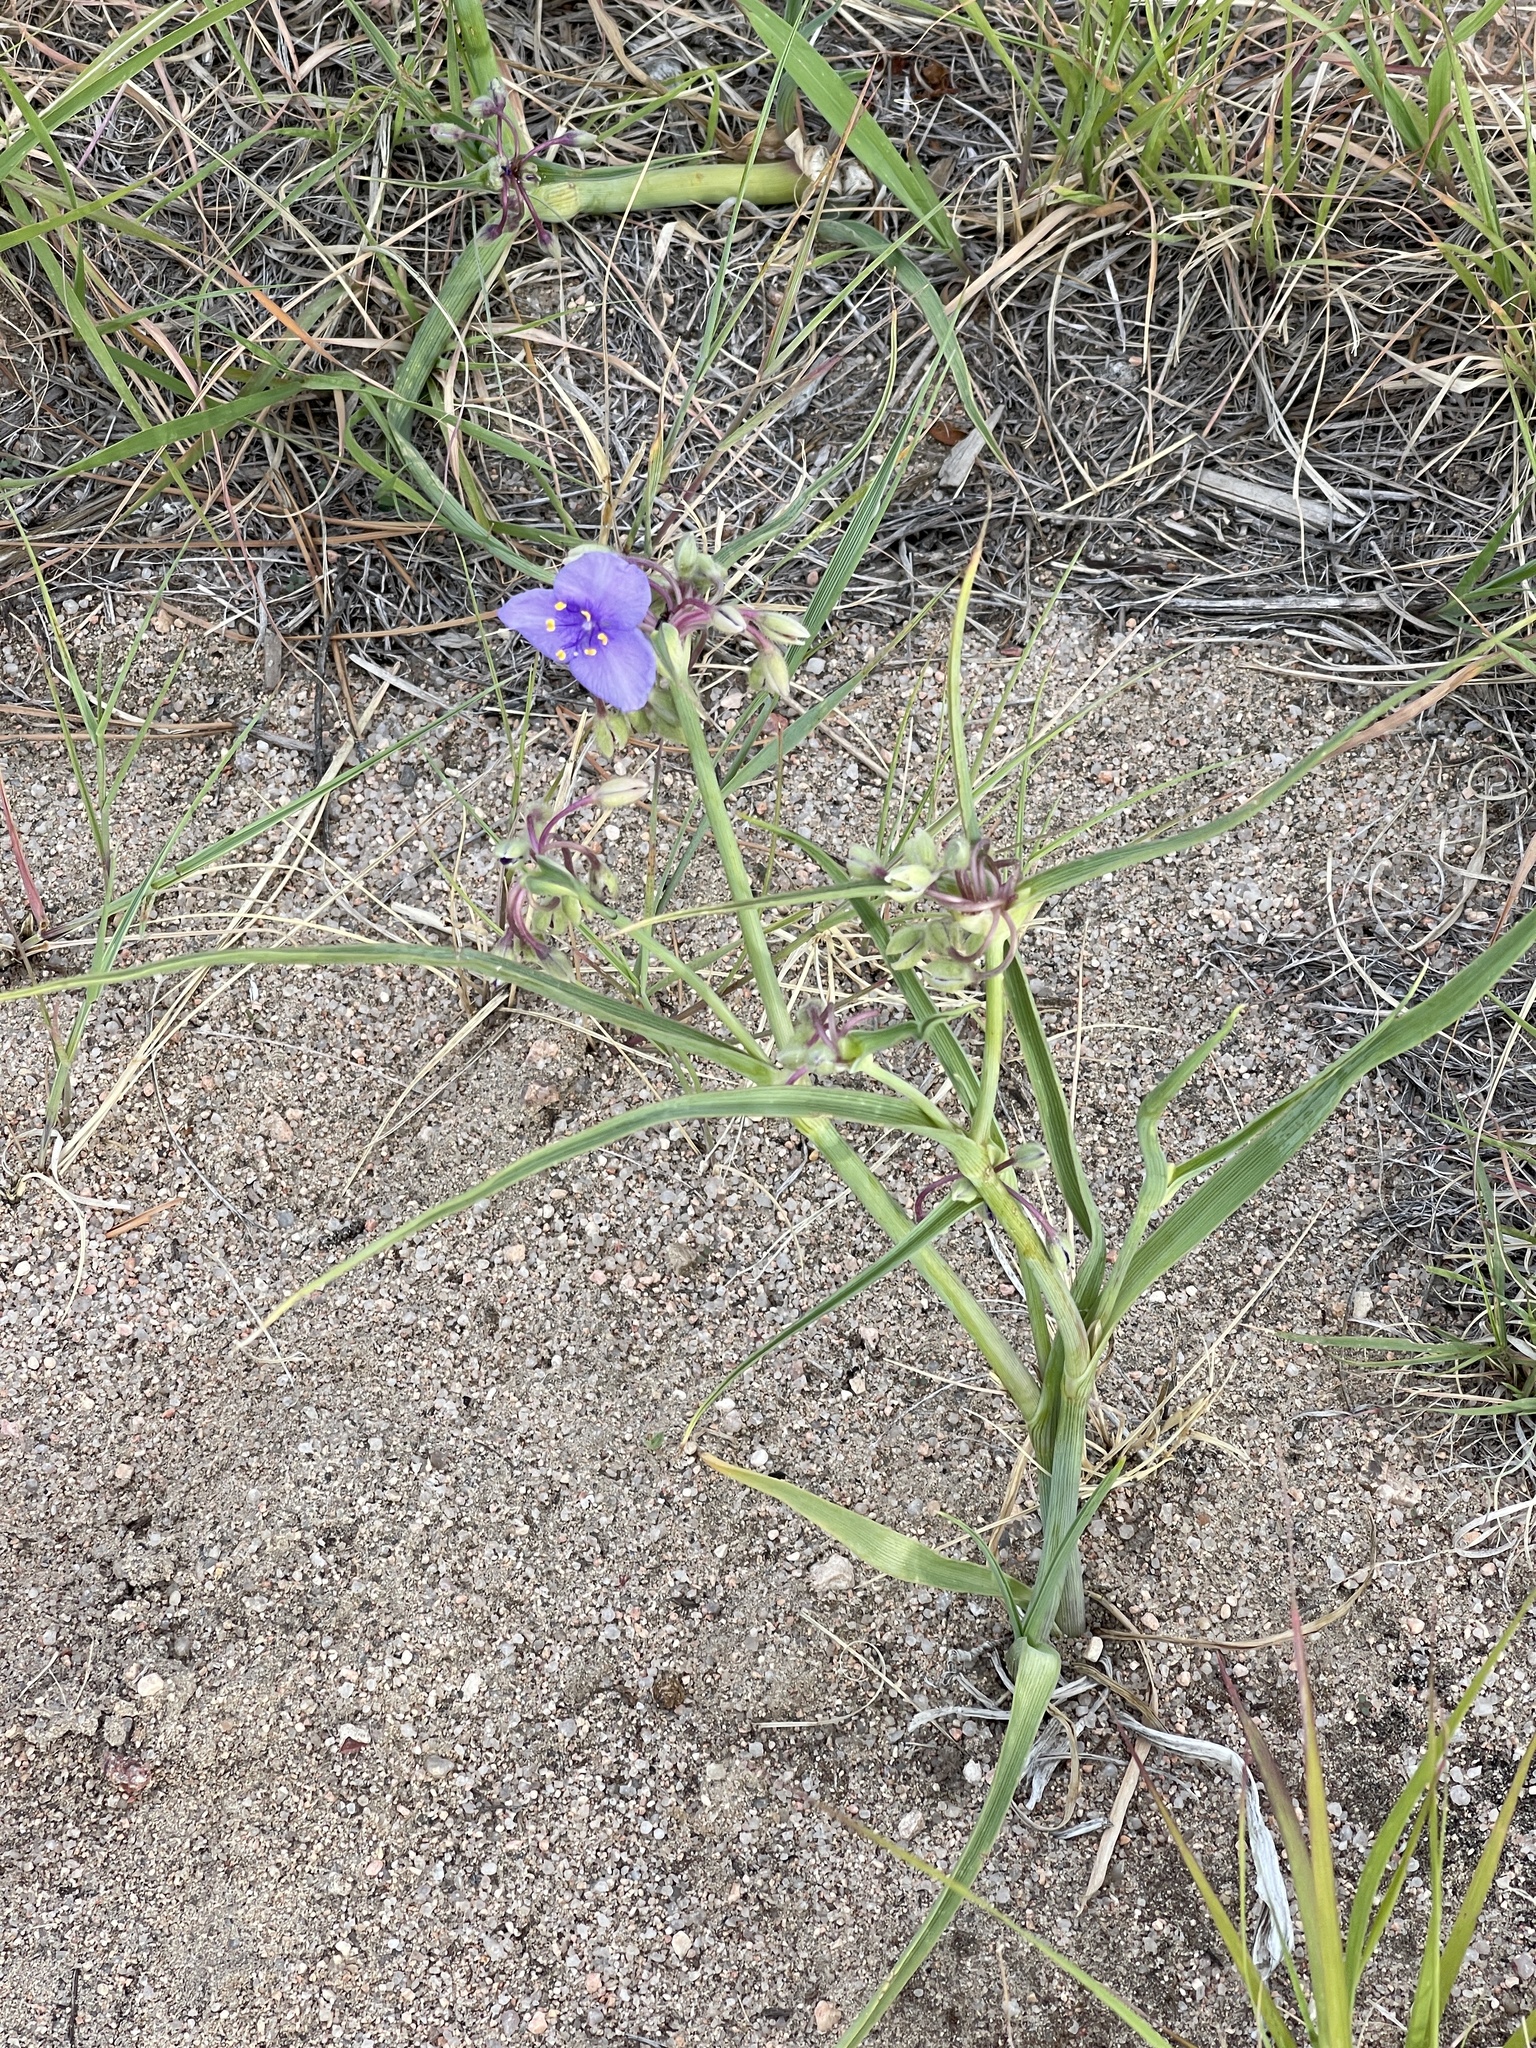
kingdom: Plantae
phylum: Tracheophyta
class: Liliopsida
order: Commelinales
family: Commelinaceae
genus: Tradescantia
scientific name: Tradescantia occidentalis
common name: Prairie spiderwort
